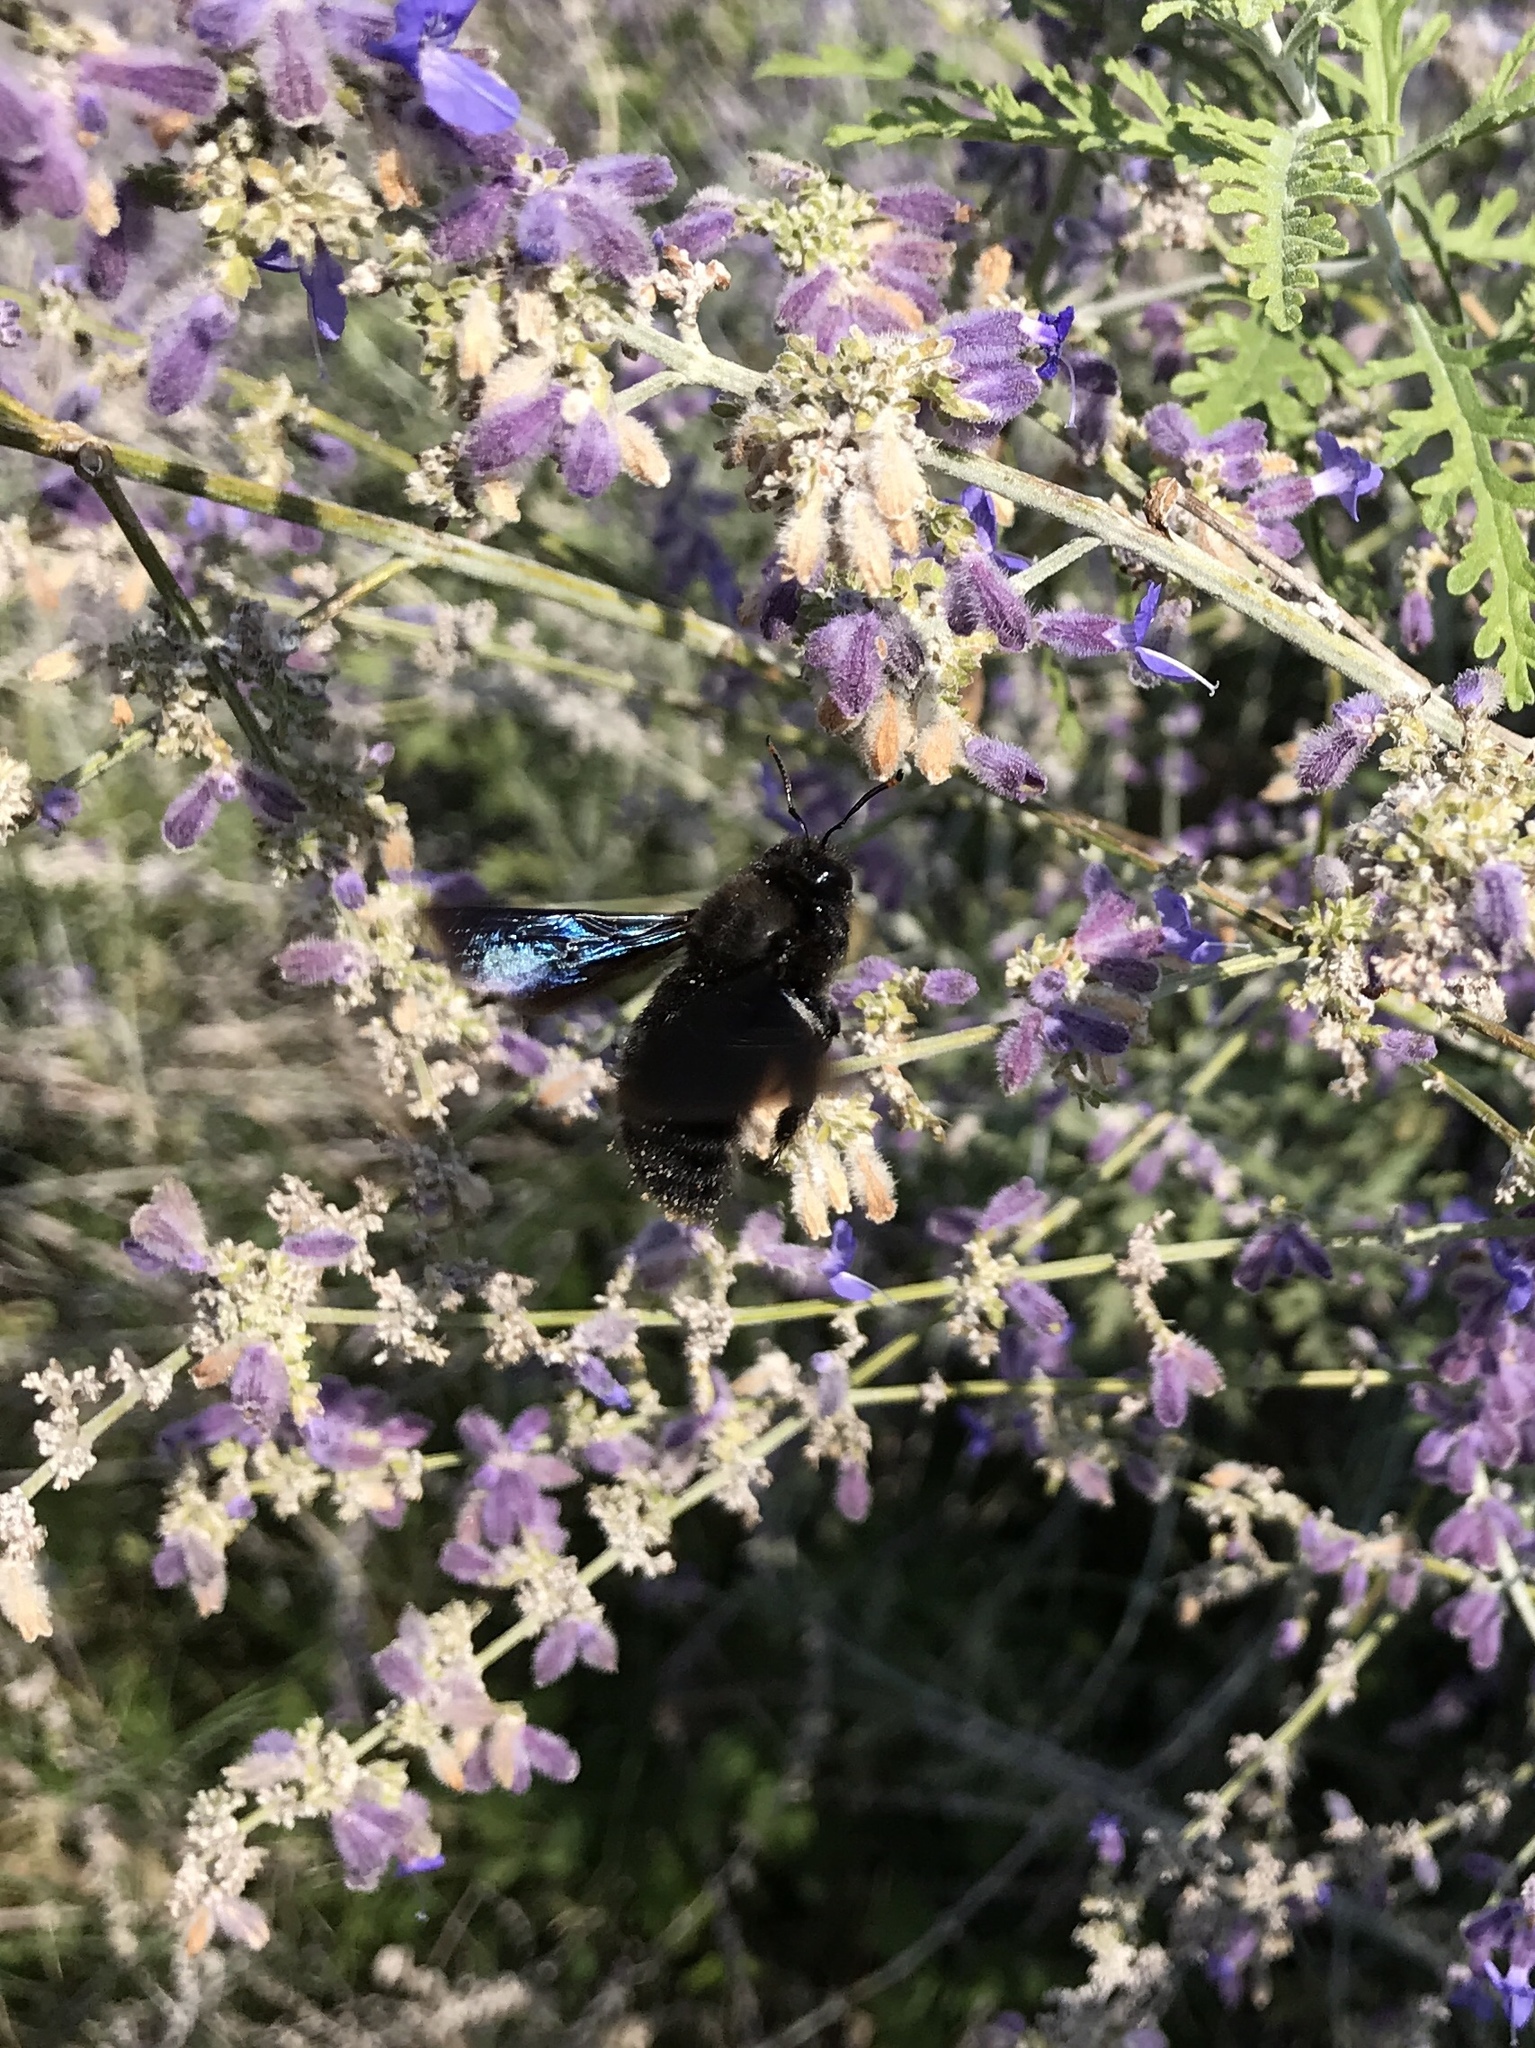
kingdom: Animalia
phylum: Arthropoda
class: Insecta
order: Hymenoptera
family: Apidae
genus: Xylocopa
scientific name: Xylocopa violacea
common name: Violet carpenter bee
